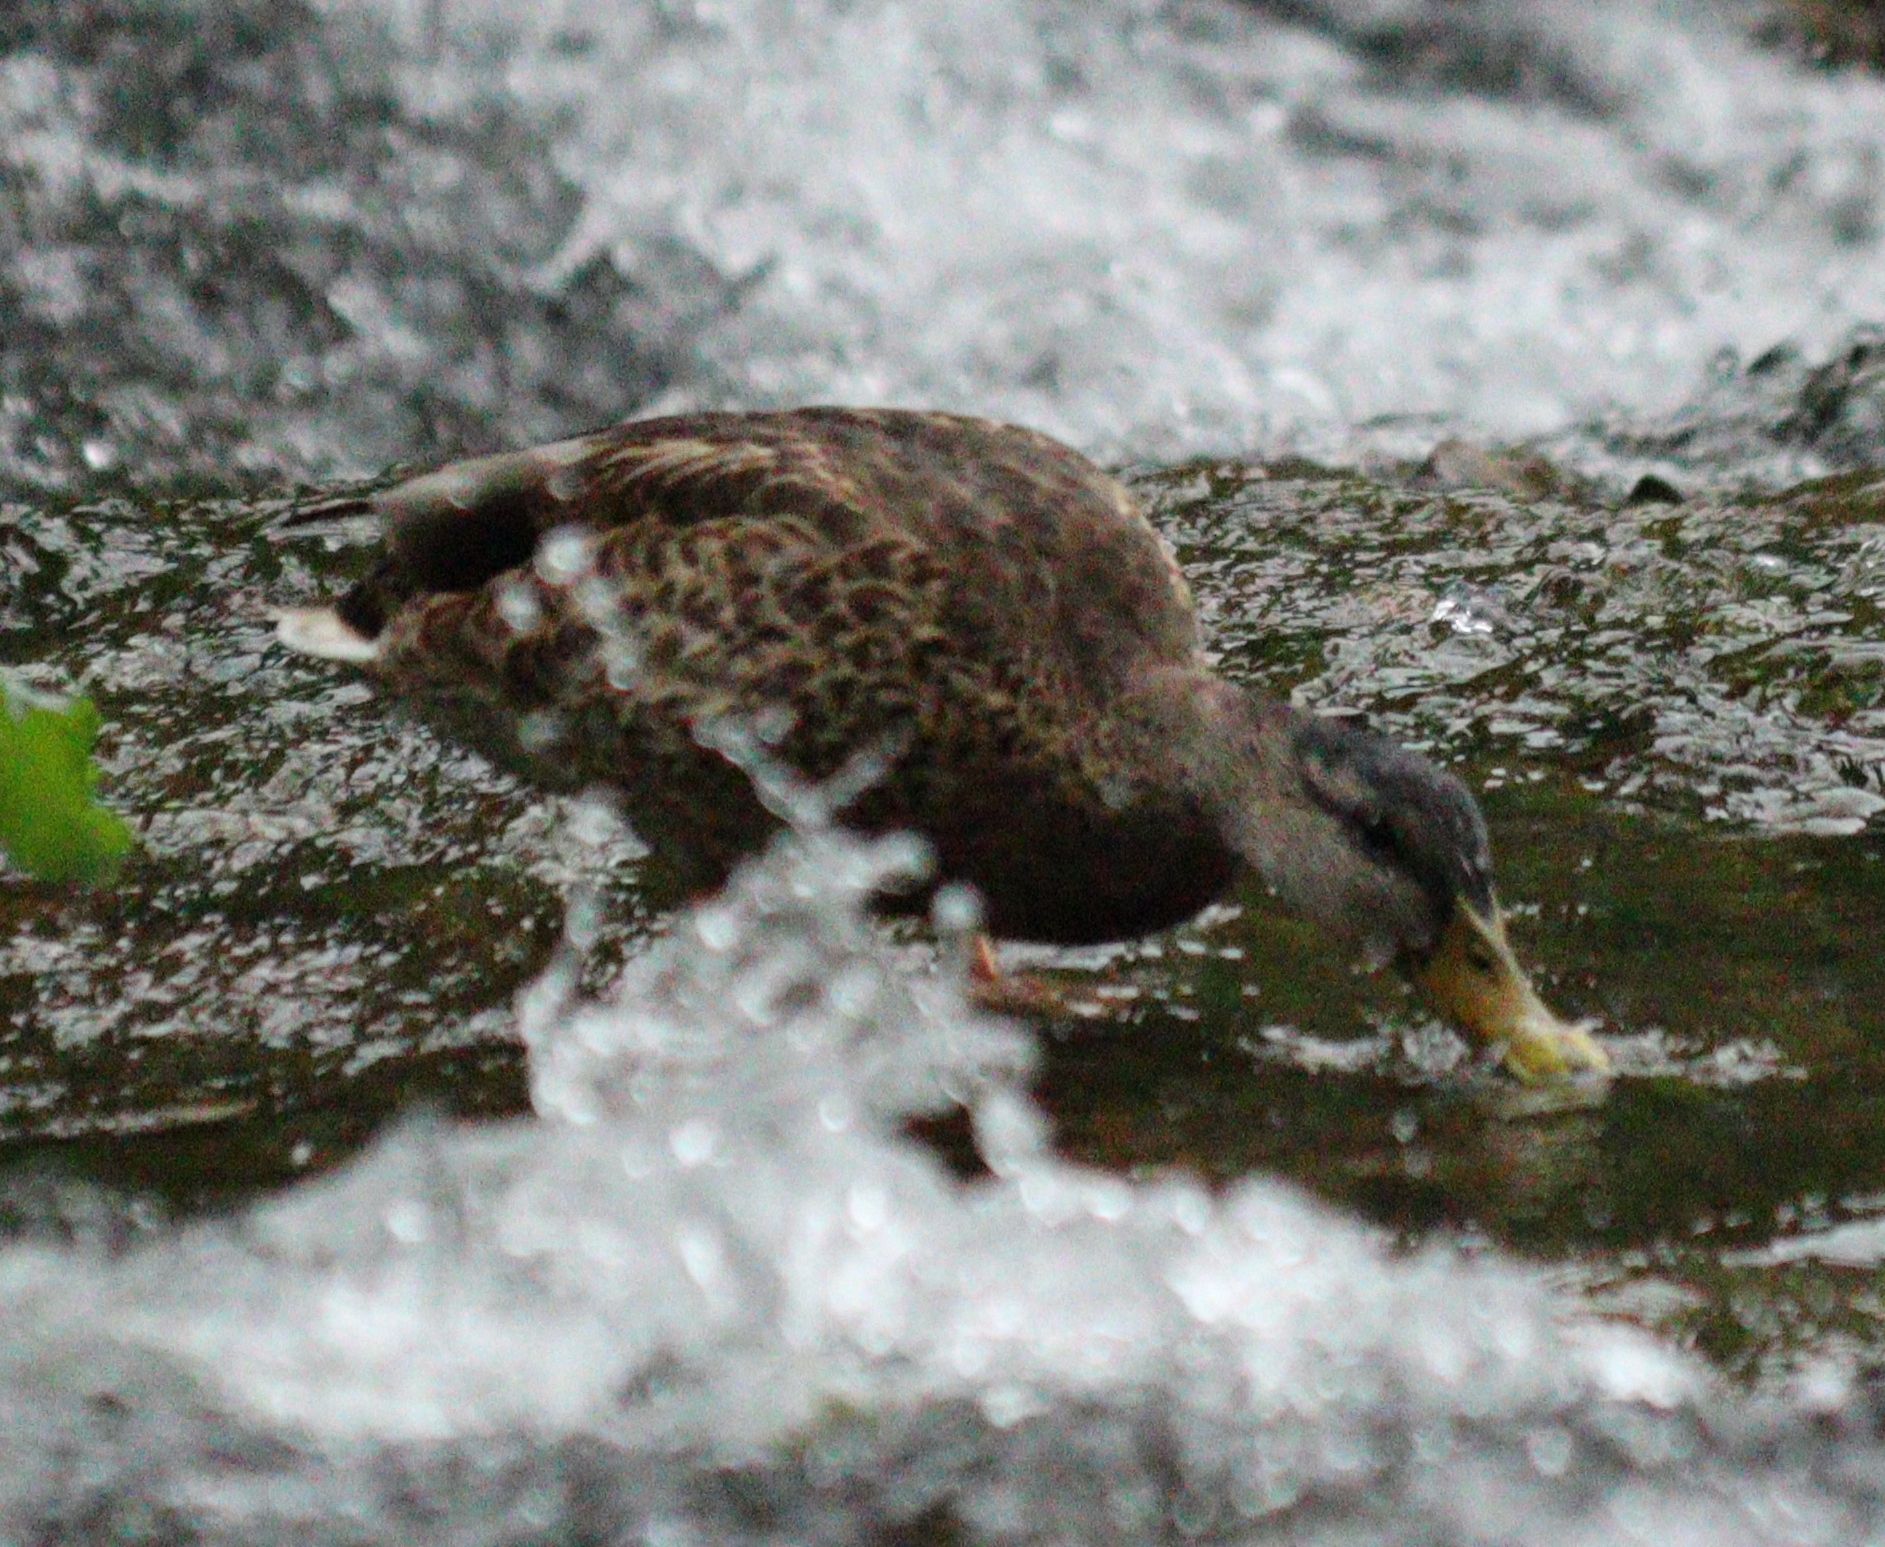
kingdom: Animalia
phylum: Chordata
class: Aves
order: Anseriformes
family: Anatidae
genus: Anas
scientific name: Anas platyrhynchos
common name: Mallard
